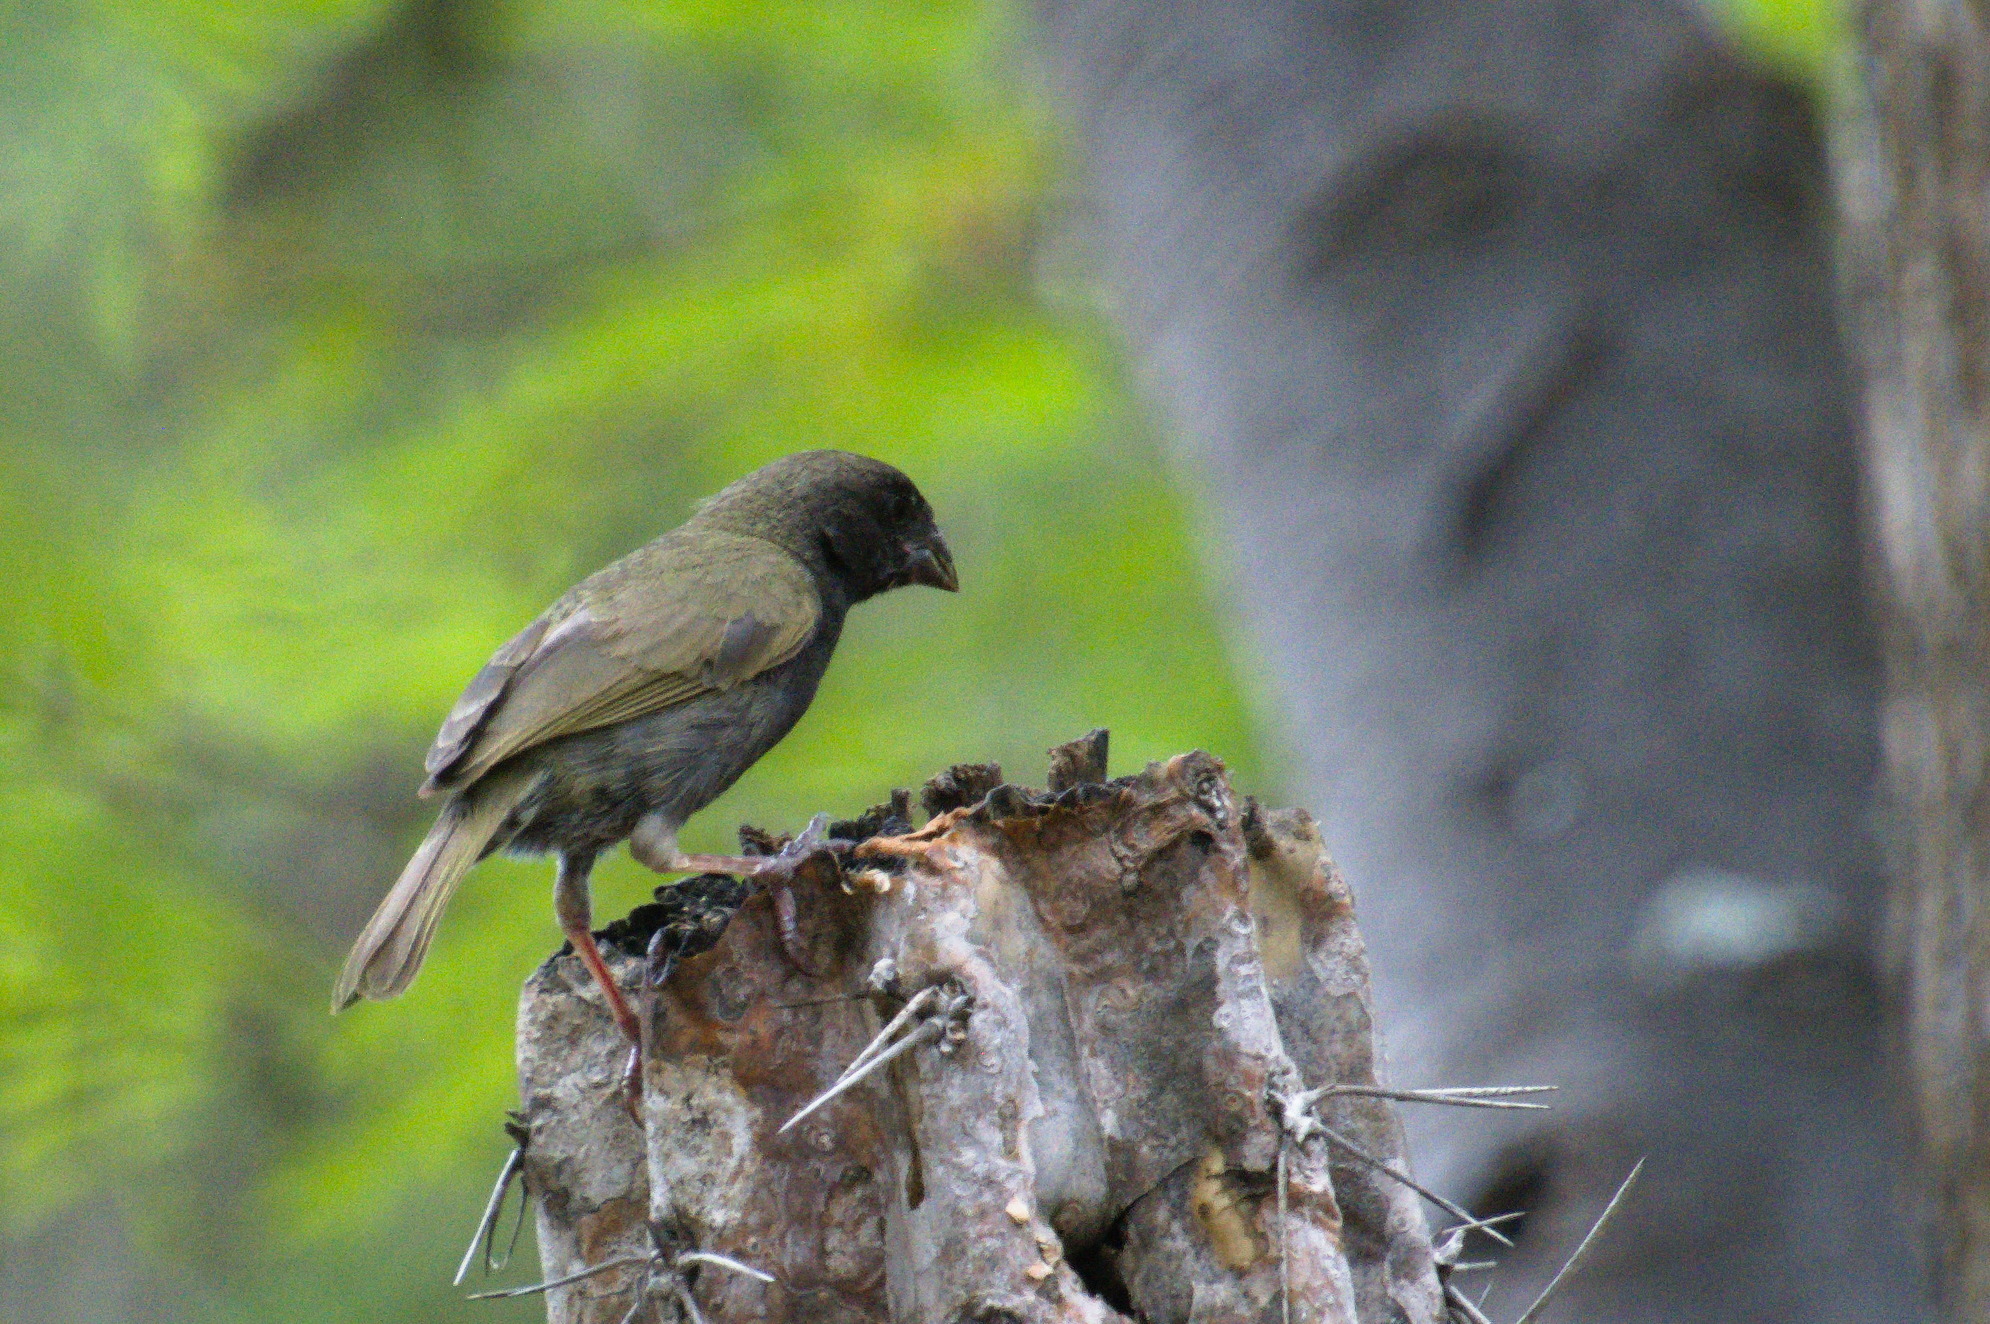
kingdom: Animalia
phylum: Chordata
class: Aves
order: Passeriformes
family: Thraupidae
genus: Melanospiza
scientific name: Melanospiza bicolor
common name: Black-faced grassquit
